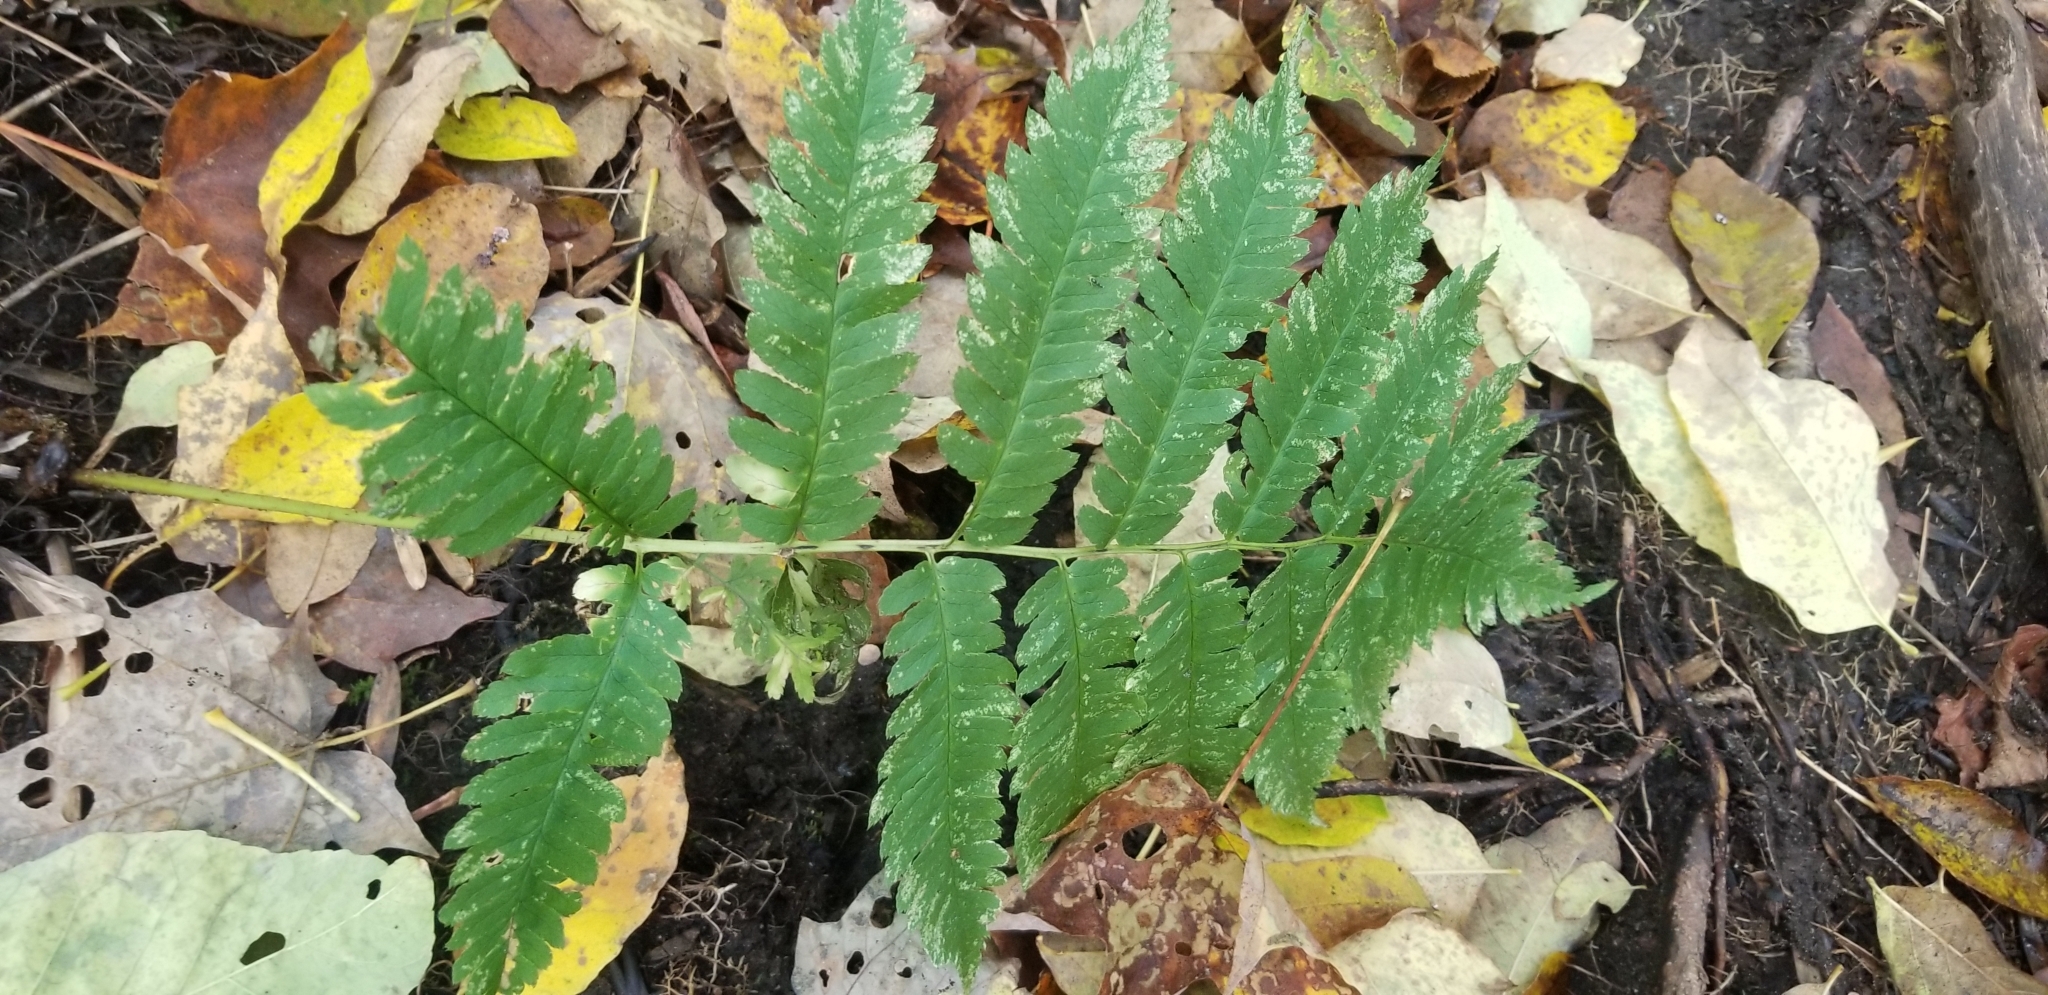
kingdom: Plantae
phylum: Tracheophyta
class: Polypodiopsida
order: Polypodiales
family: Dryopteridaceae
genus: Dryopteris
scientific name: Dryopteris goldieana
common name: Goldie's fern
